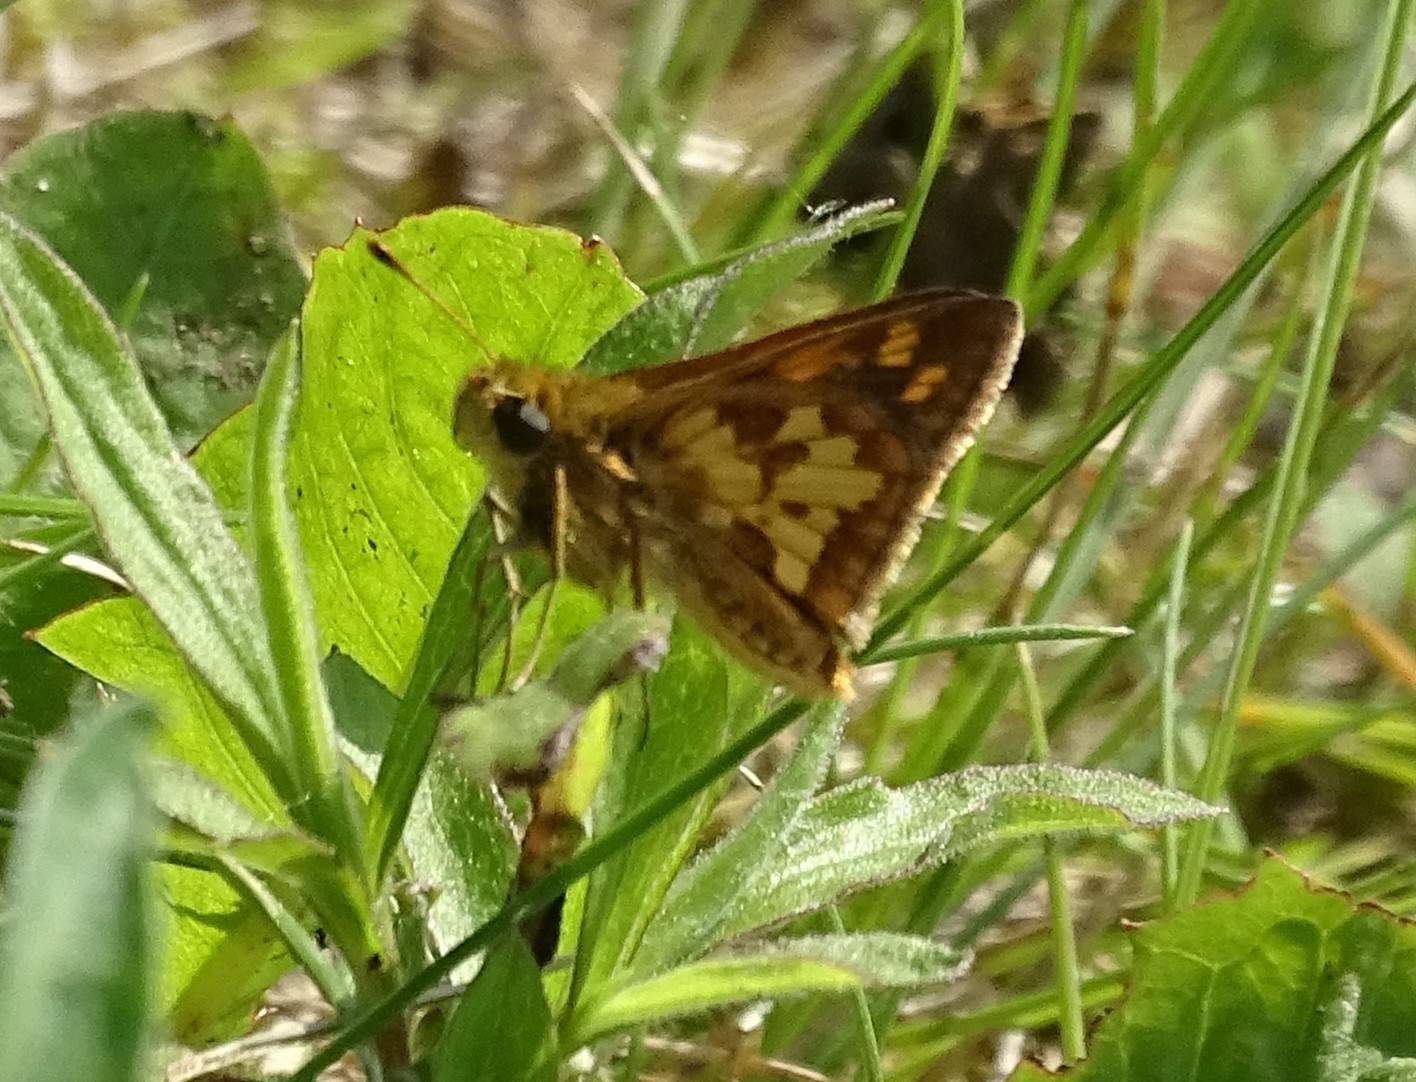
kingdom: Animalia
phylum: Arthropoda
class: Insecta
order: Lepidoptera
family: Hesperiidae
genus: Polites
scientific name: Polites coras
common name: Peck's skipper
